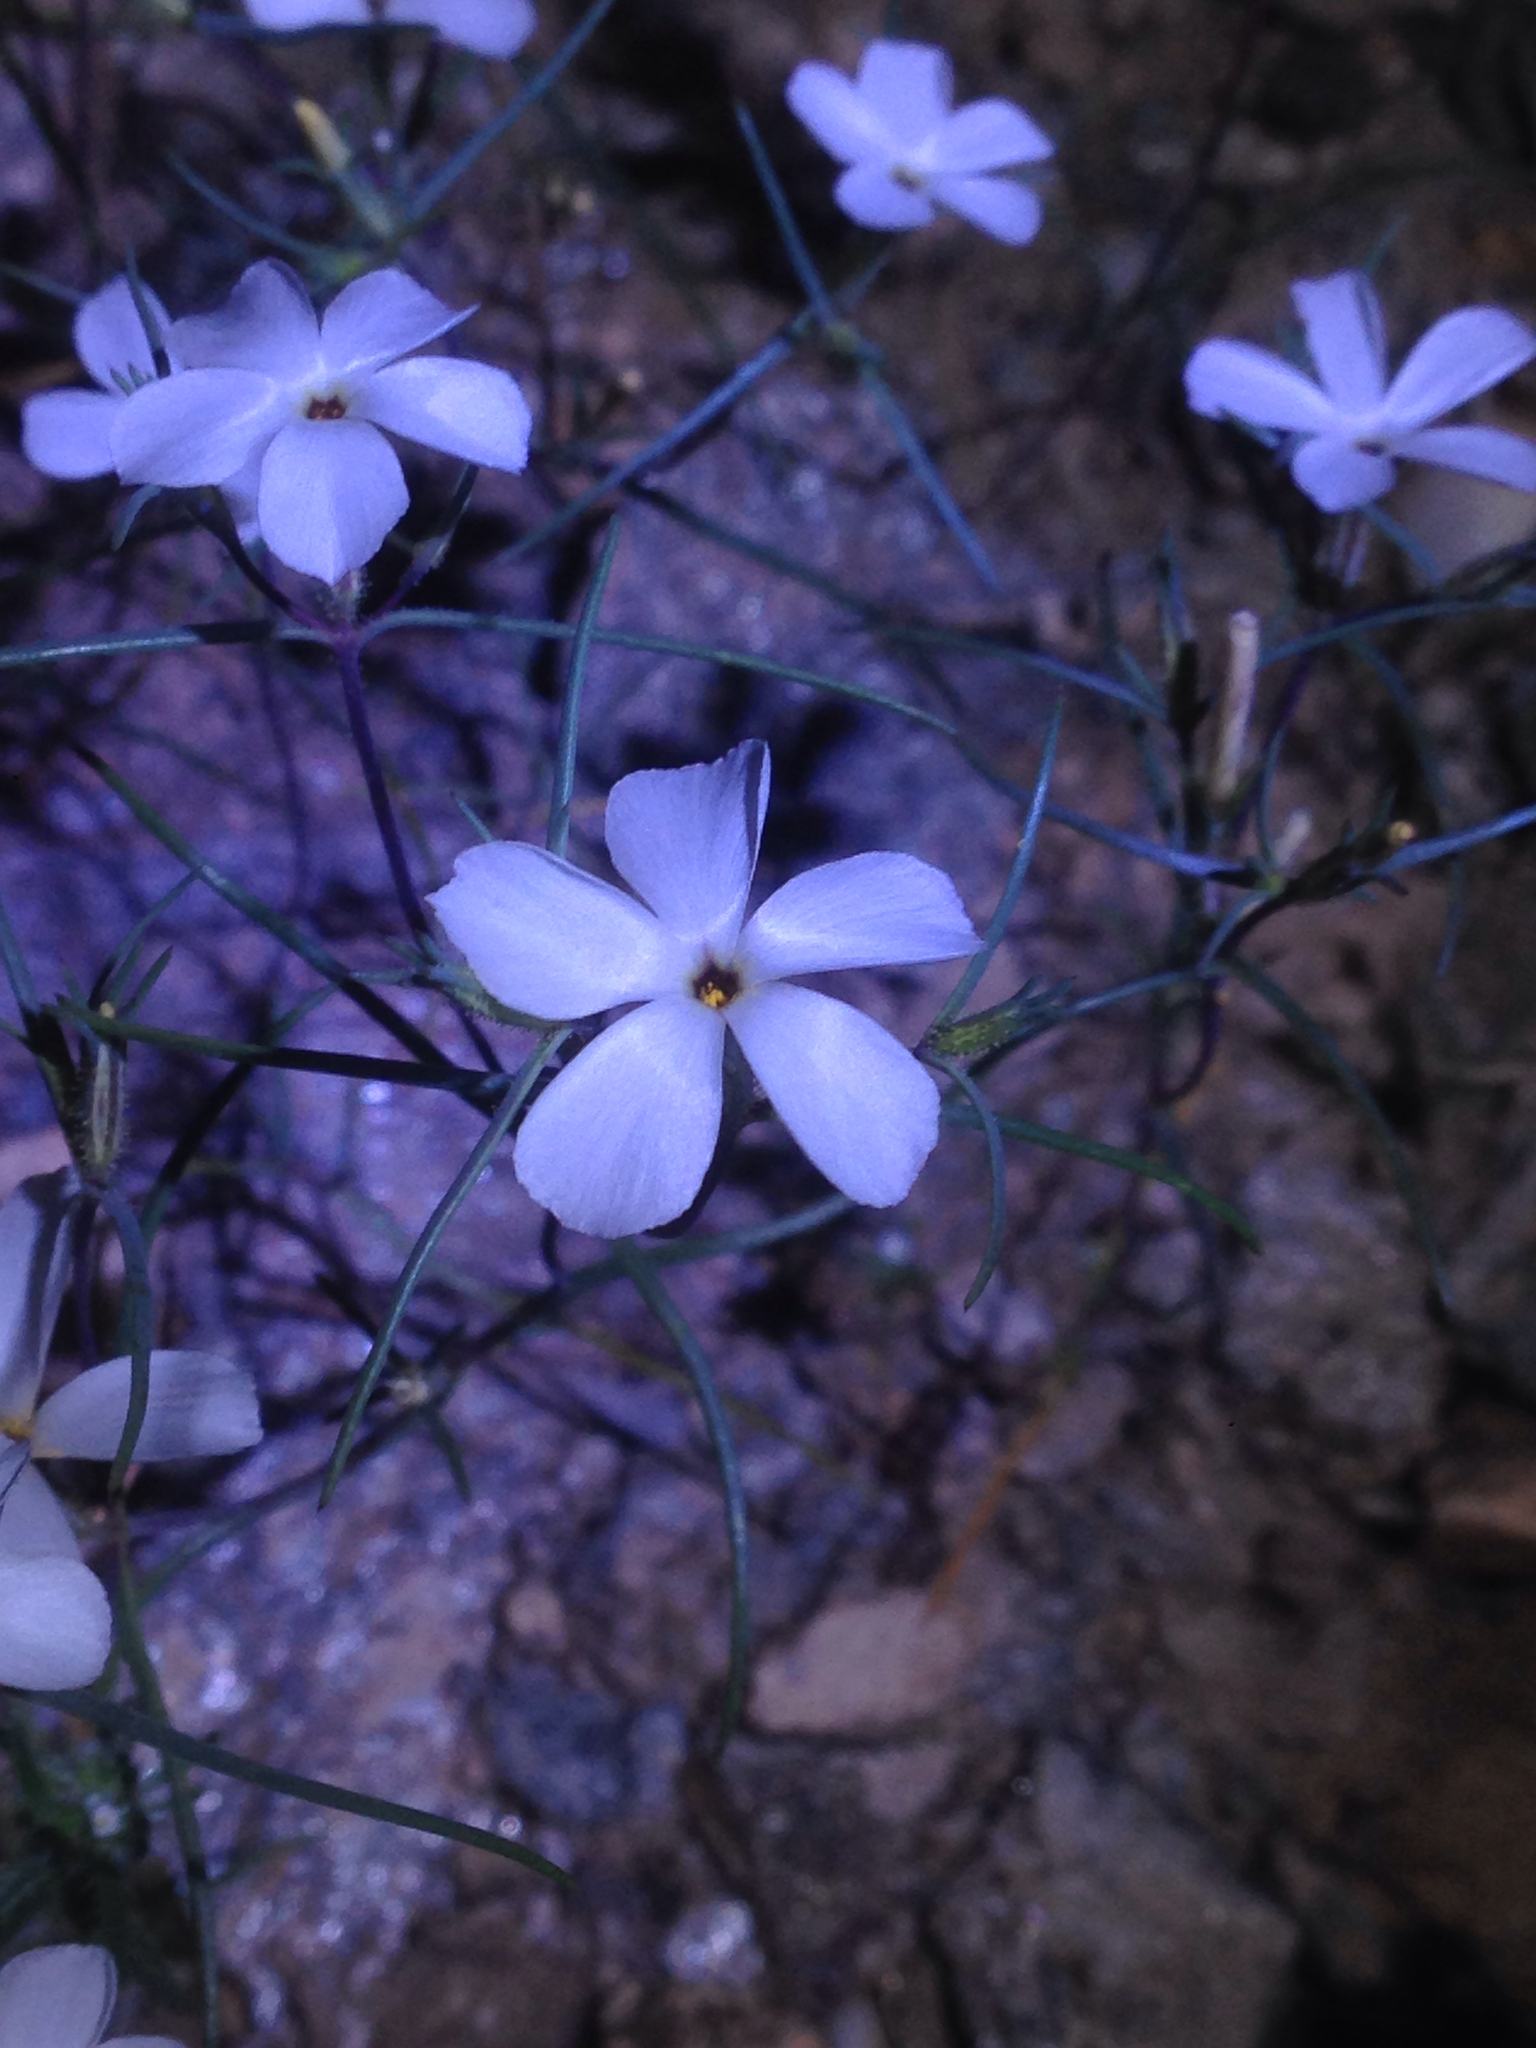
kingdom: Plantae
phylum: Tracheophyta
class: Magnoliopsida
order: Ericales
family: Polemoniaceae
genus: Linanthus
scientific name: Linanthus jonesii
